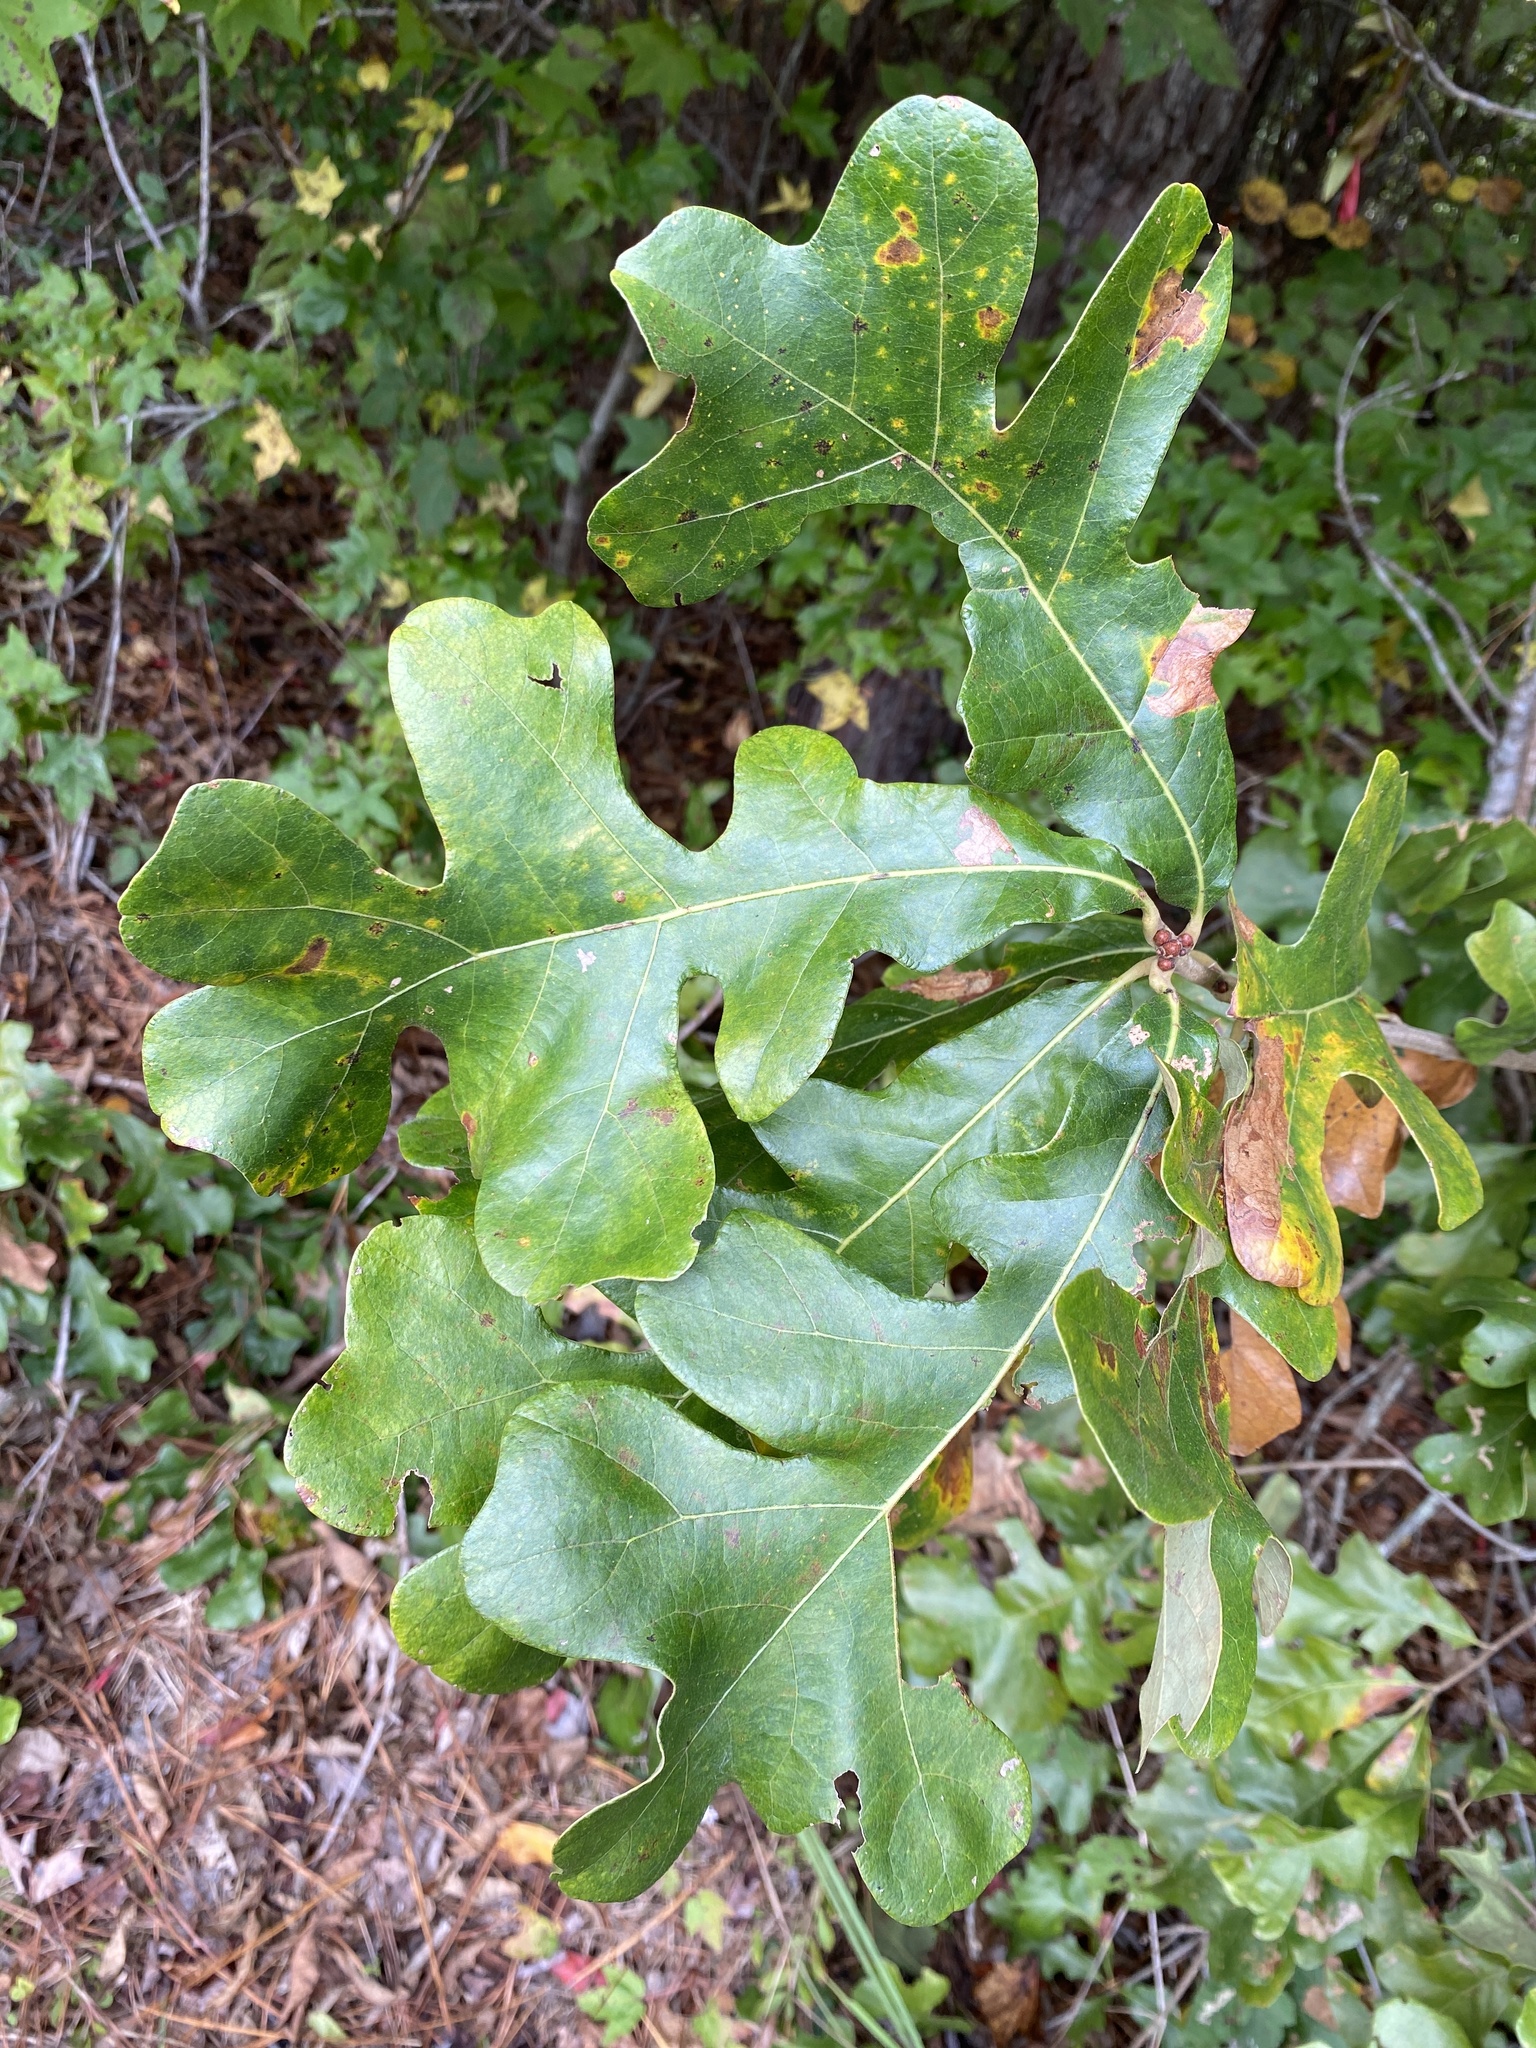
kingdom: Plantae
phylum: Tracheophyta
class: Magnoliopsida
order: Fagales
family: Fagaceae
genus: Quercus
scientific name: Quercus stellata
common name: Post oak
